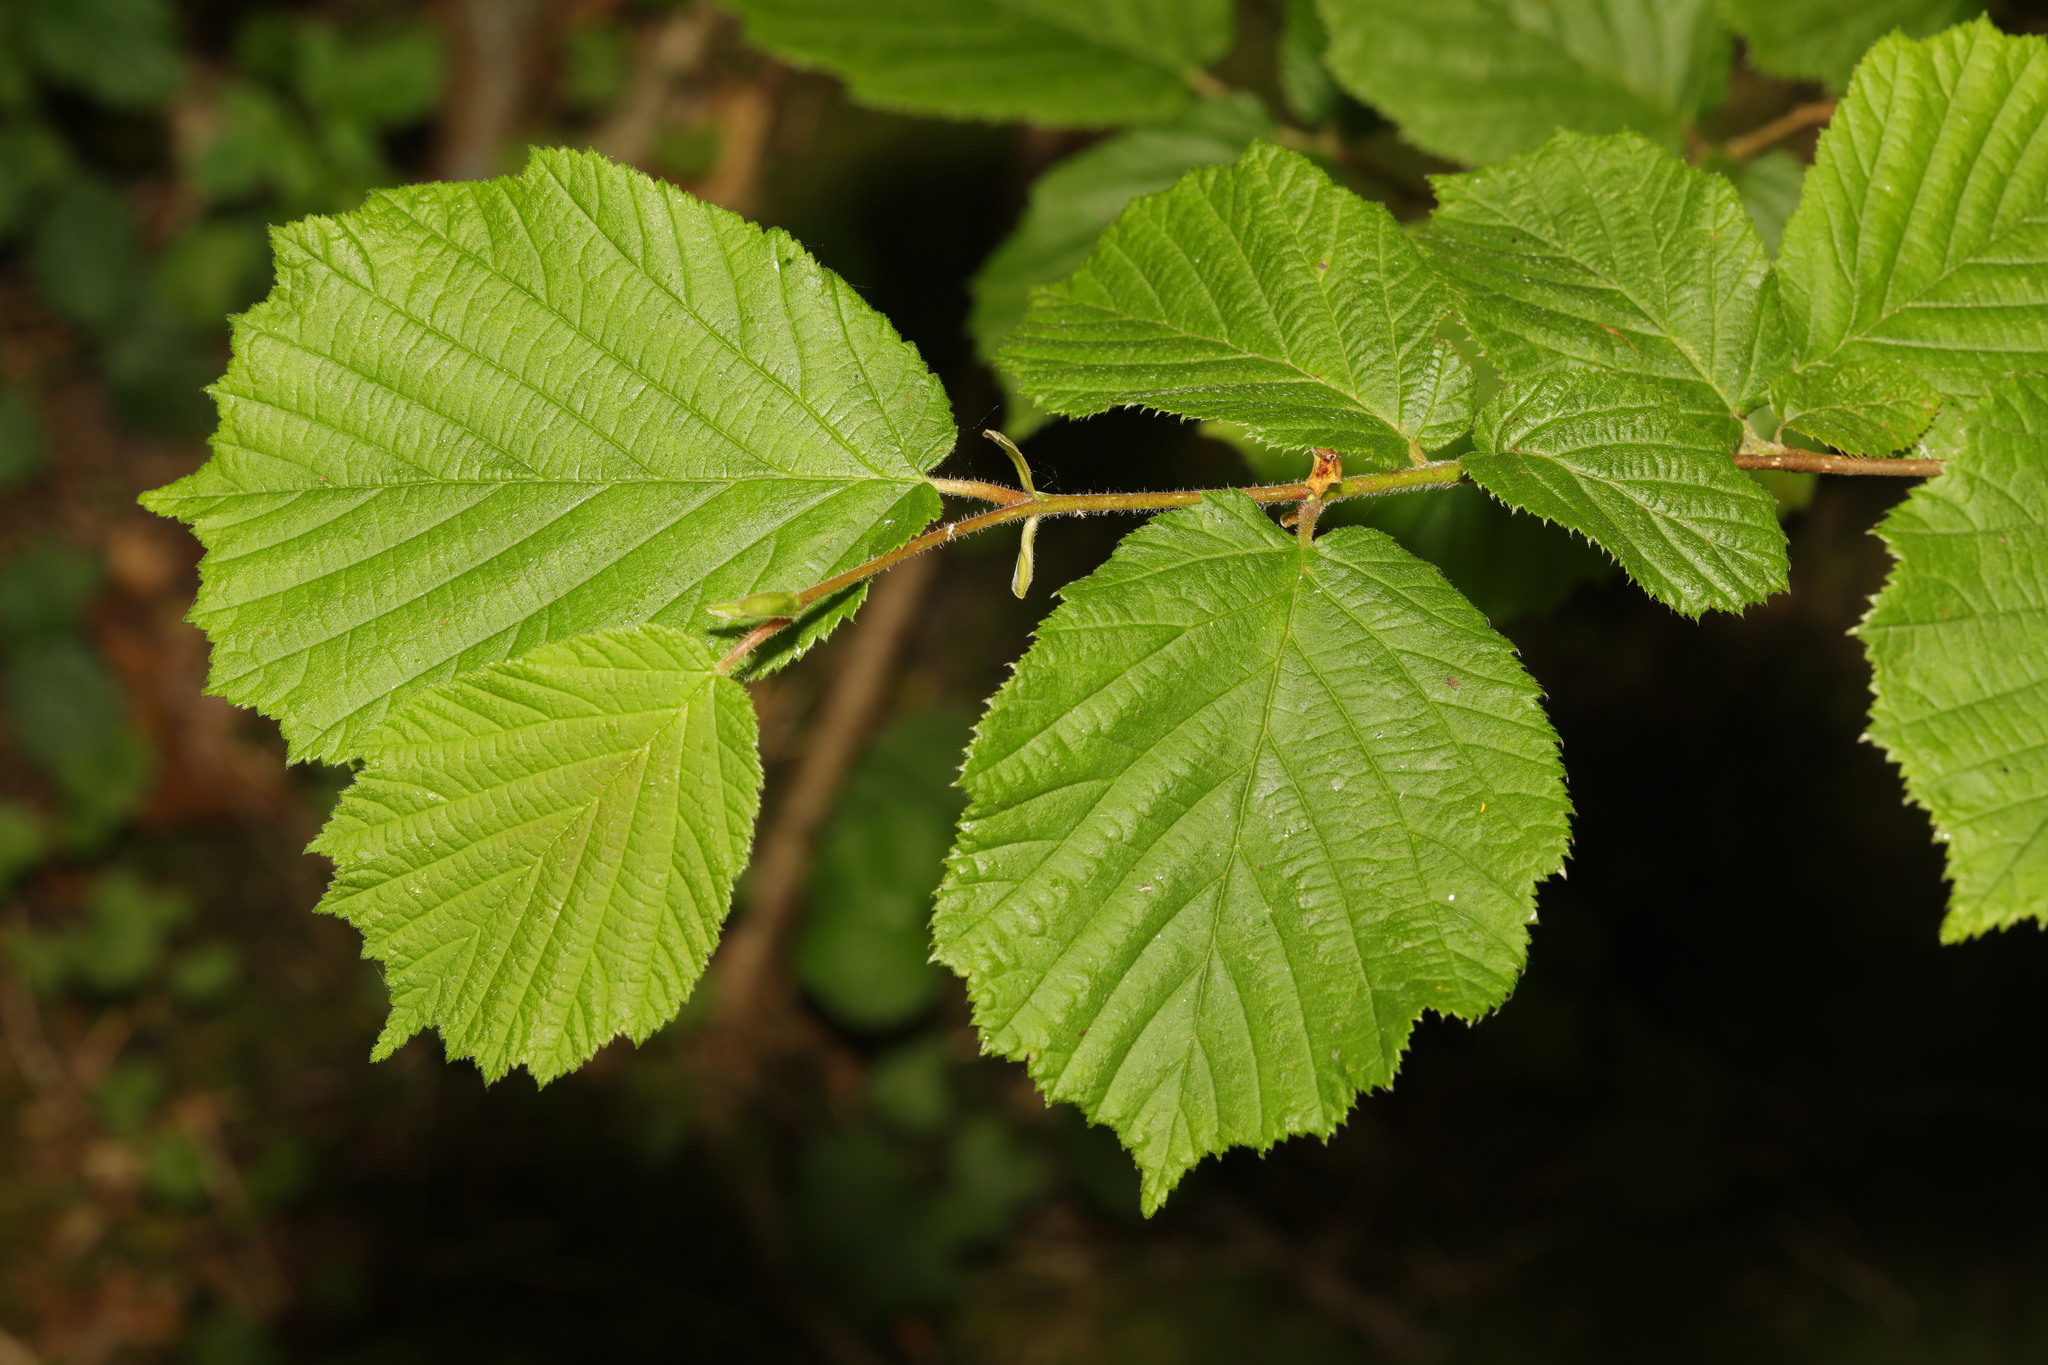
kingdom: Plantae
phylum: Tracheophyta
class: Magnoliopsida
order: Fagales
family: Betulaceae
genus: Corylus
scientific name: Corylus avellana
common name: European hazel
